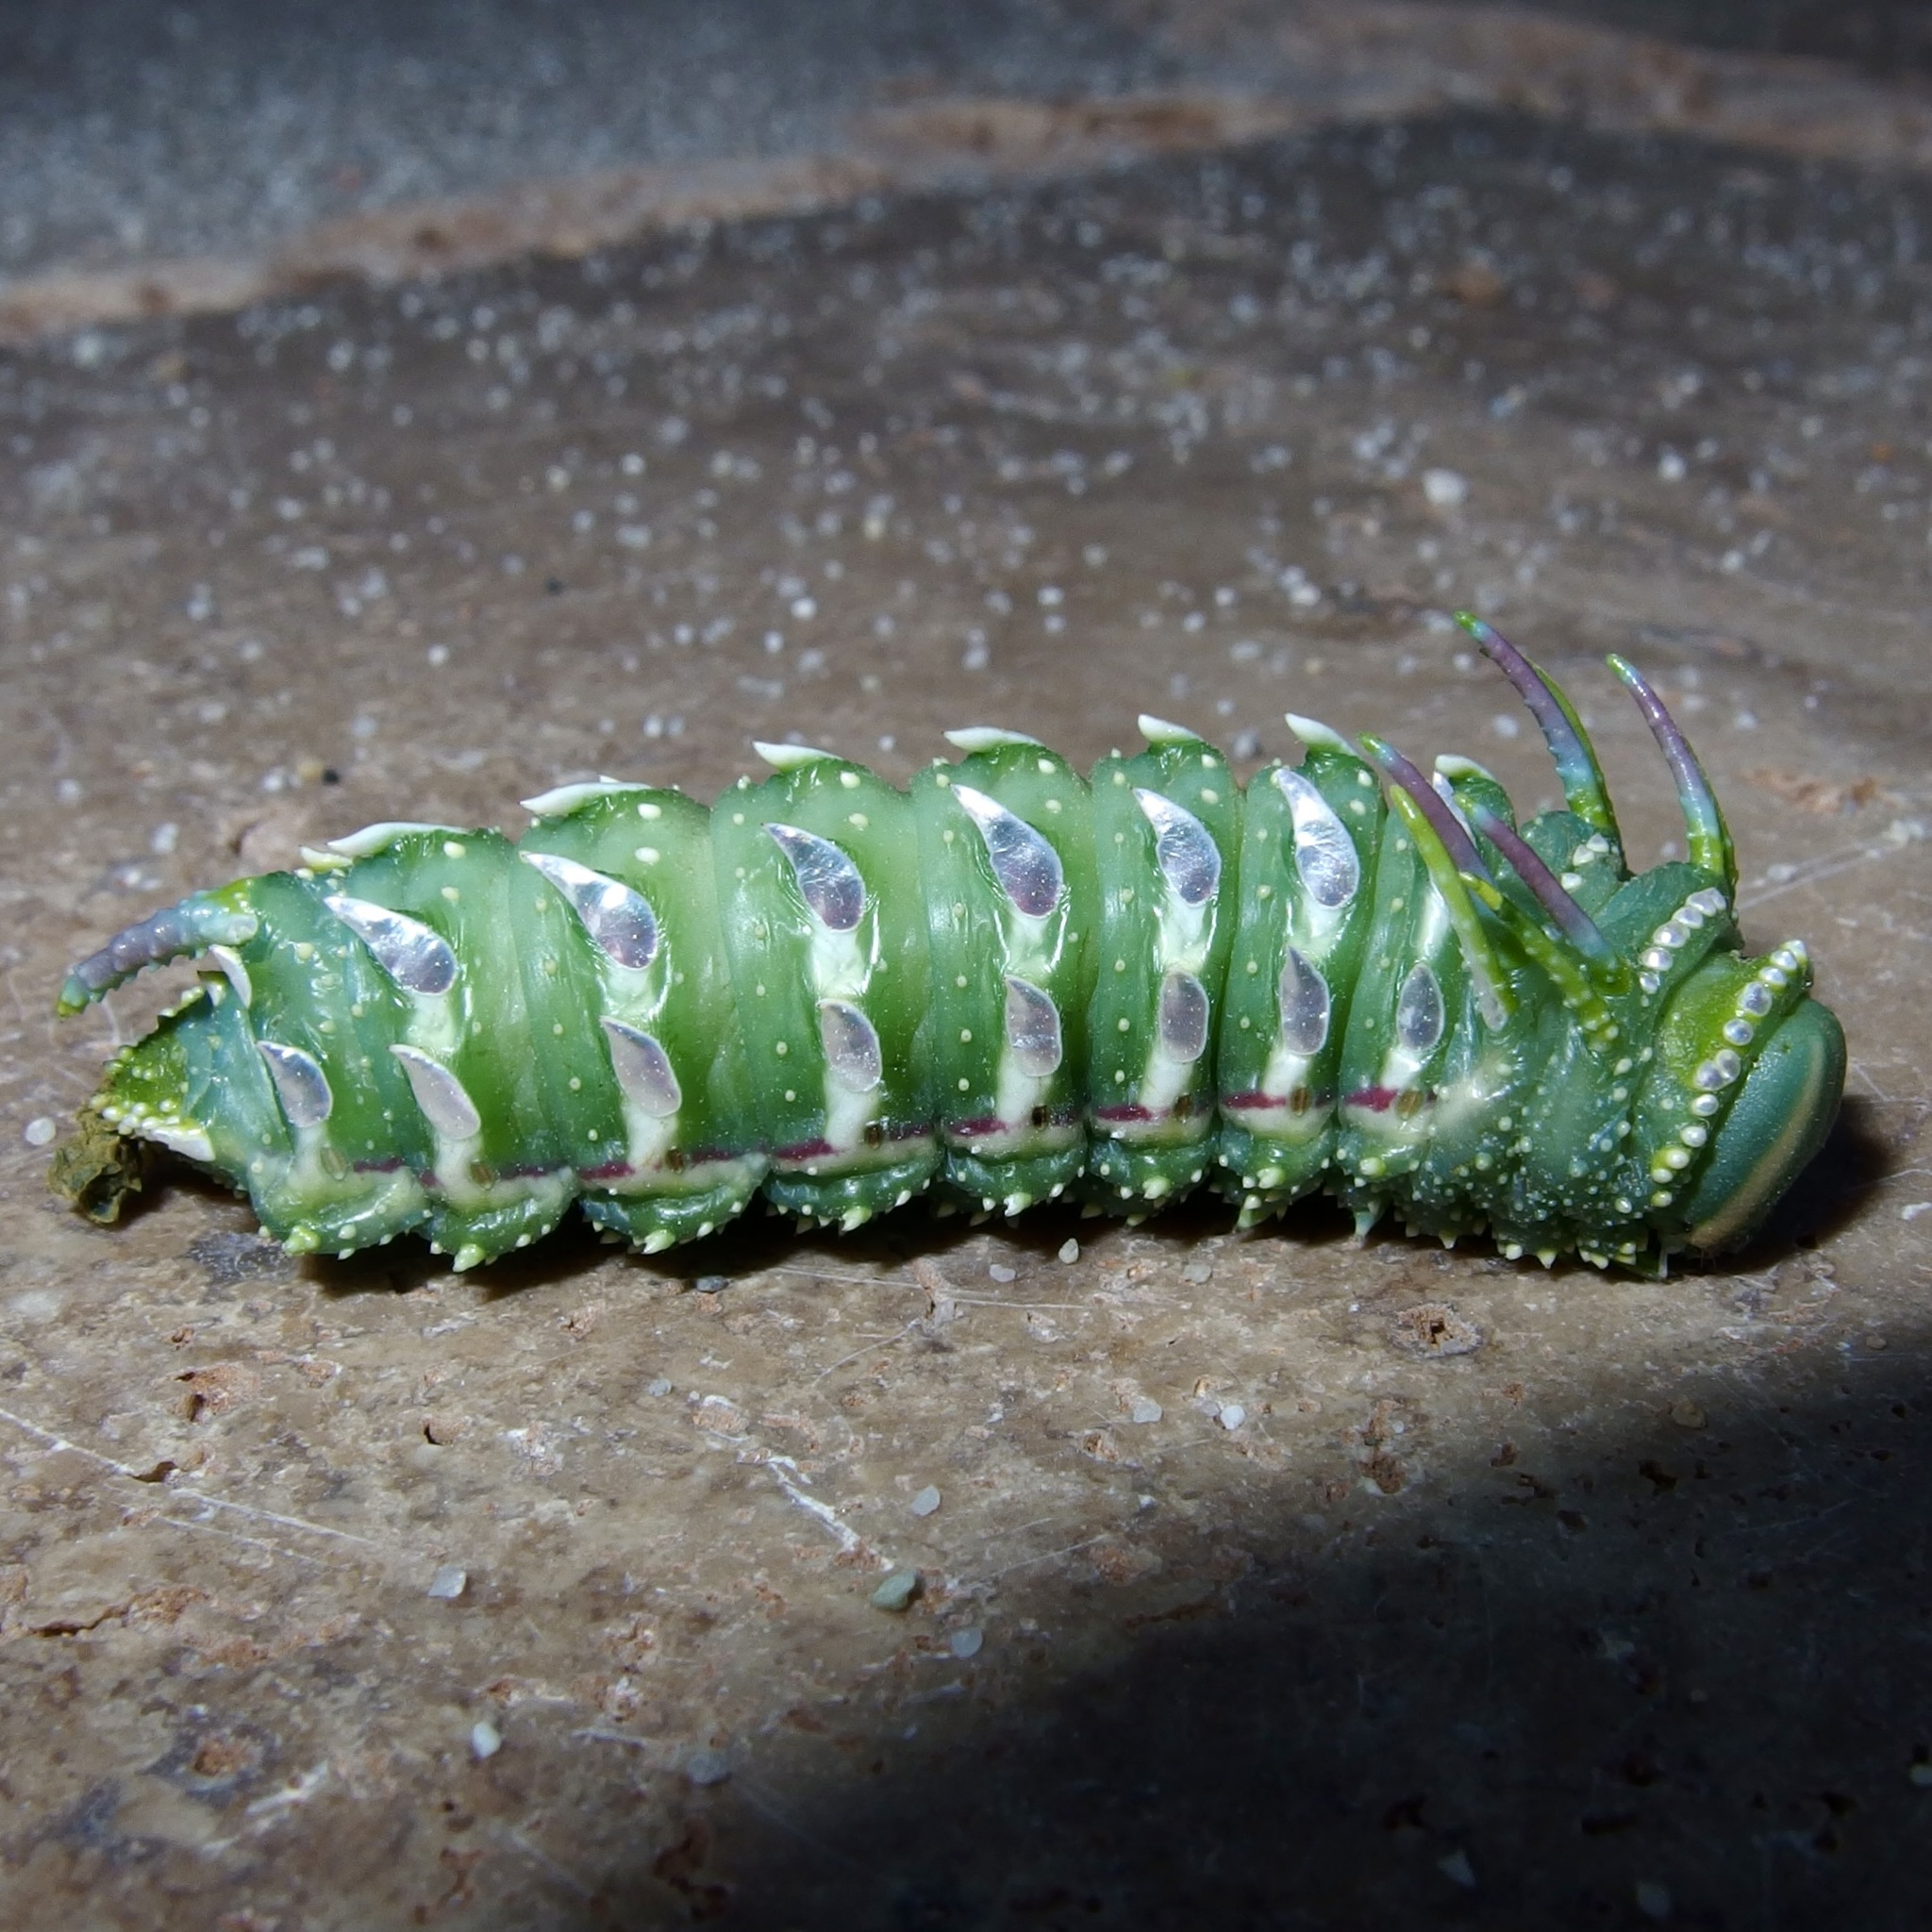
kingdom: Animalia
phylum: Arthropoda
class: Insecta
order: Lepidoptera
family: Saturniidae
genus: Syssphinx
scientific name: Syssphinx hubbardi
